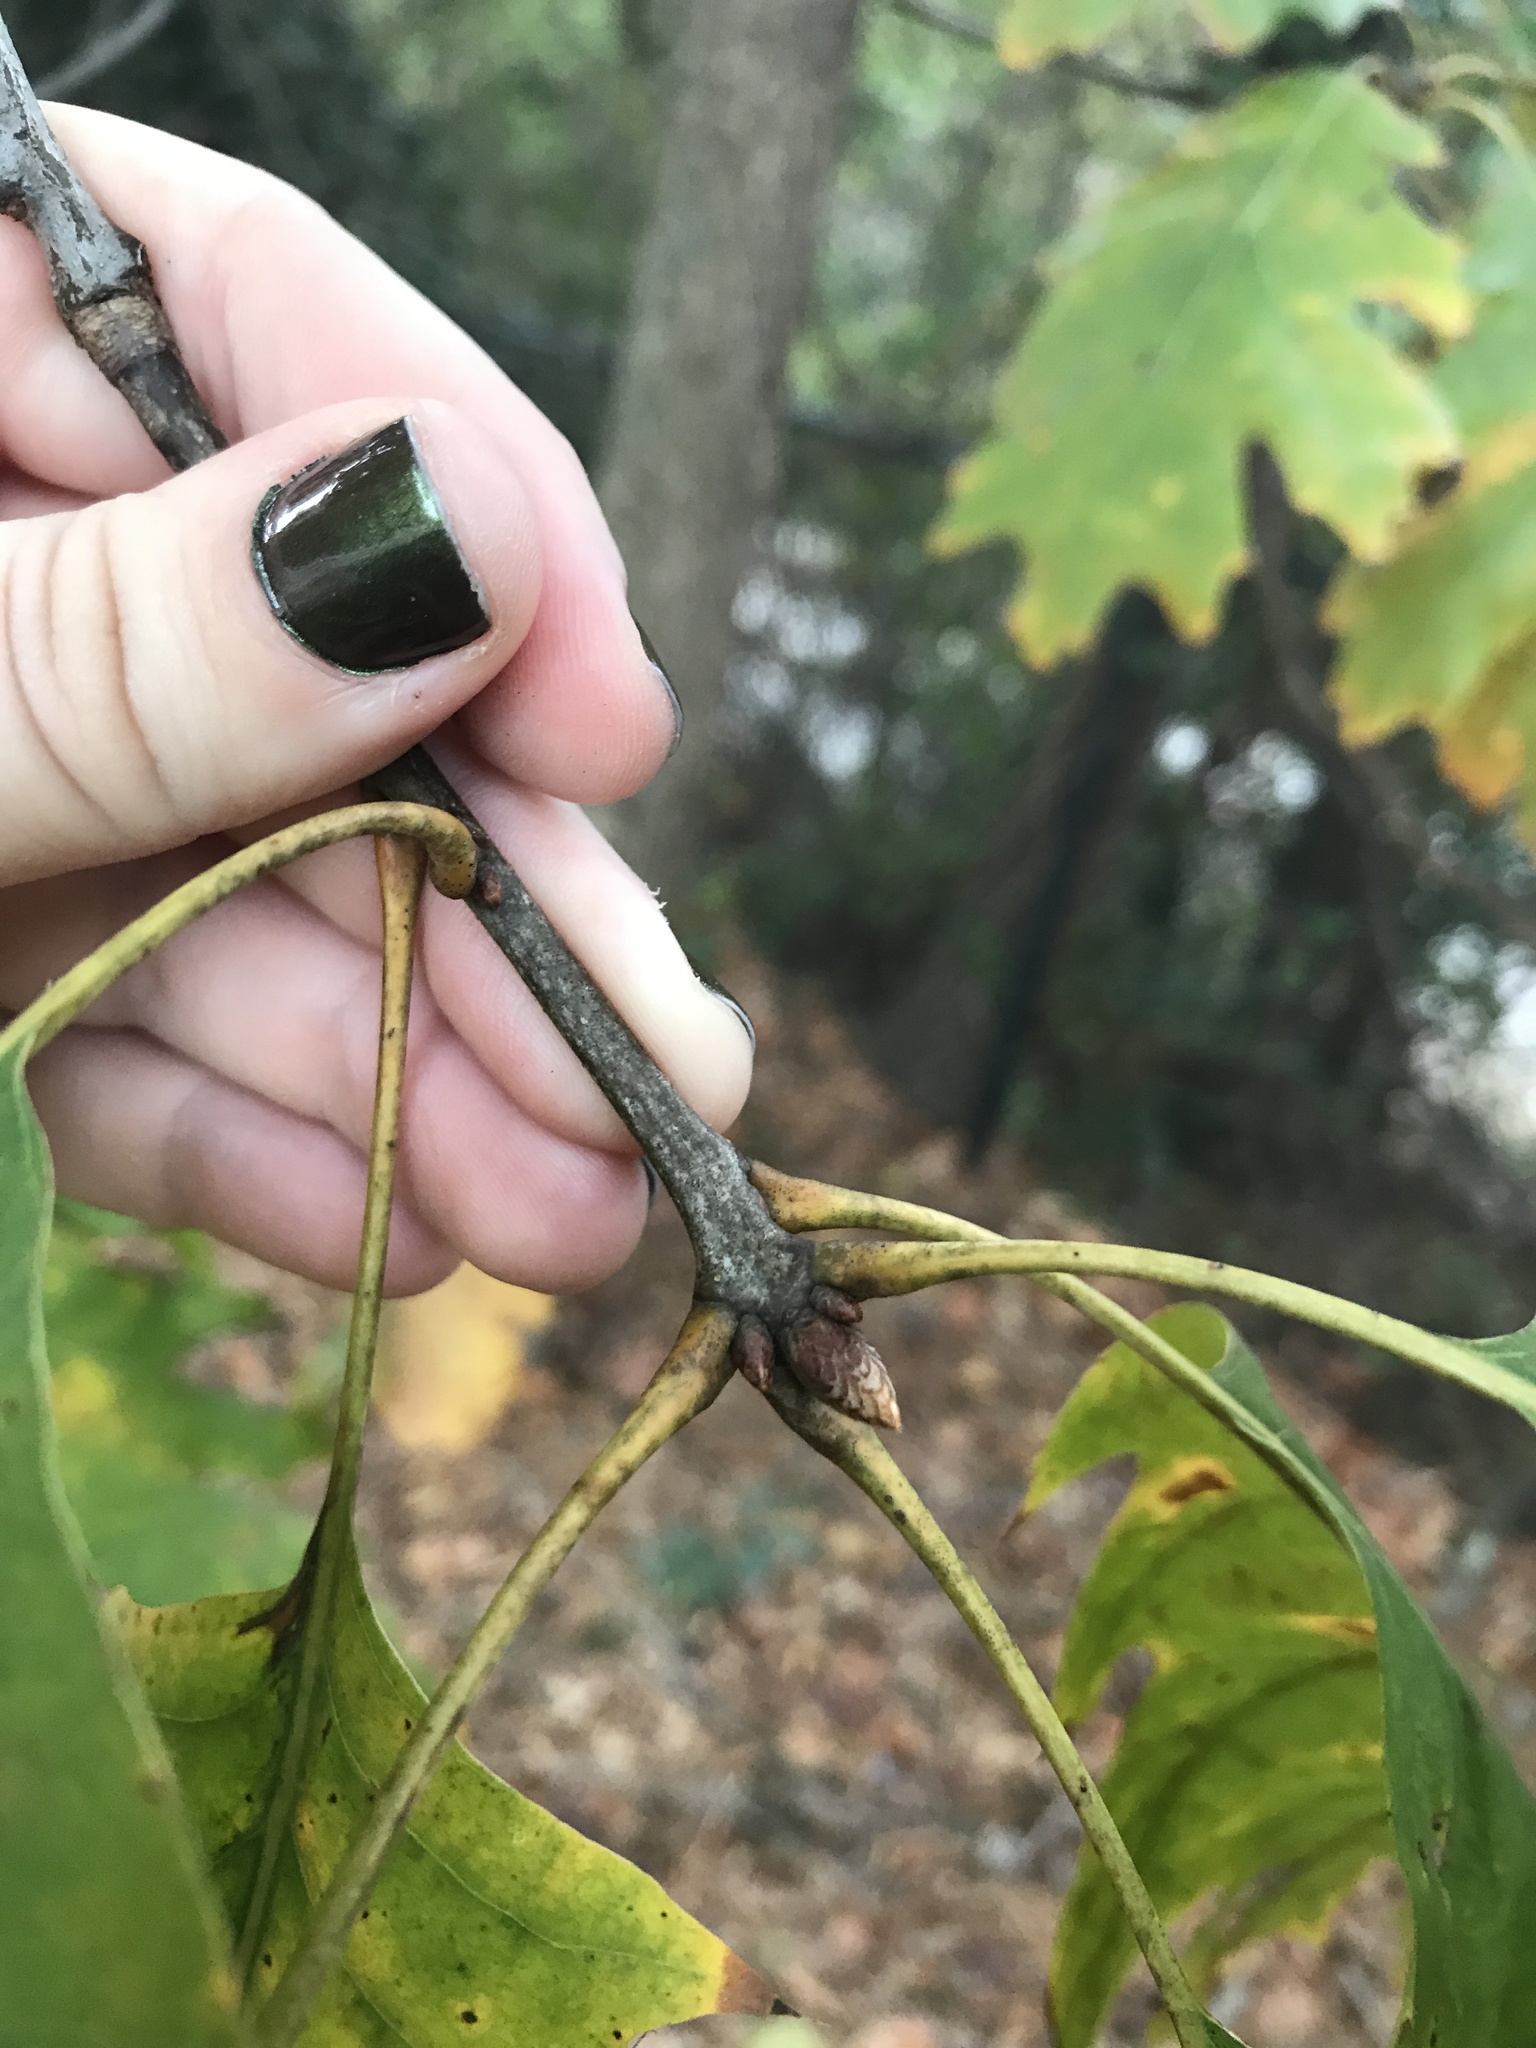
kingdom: Plantae
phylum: Tracheophyta
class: Magnoliopsida
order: Fagales
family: Fagaceae
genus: Quercus
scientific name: Quercus rubra
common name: Red oak
